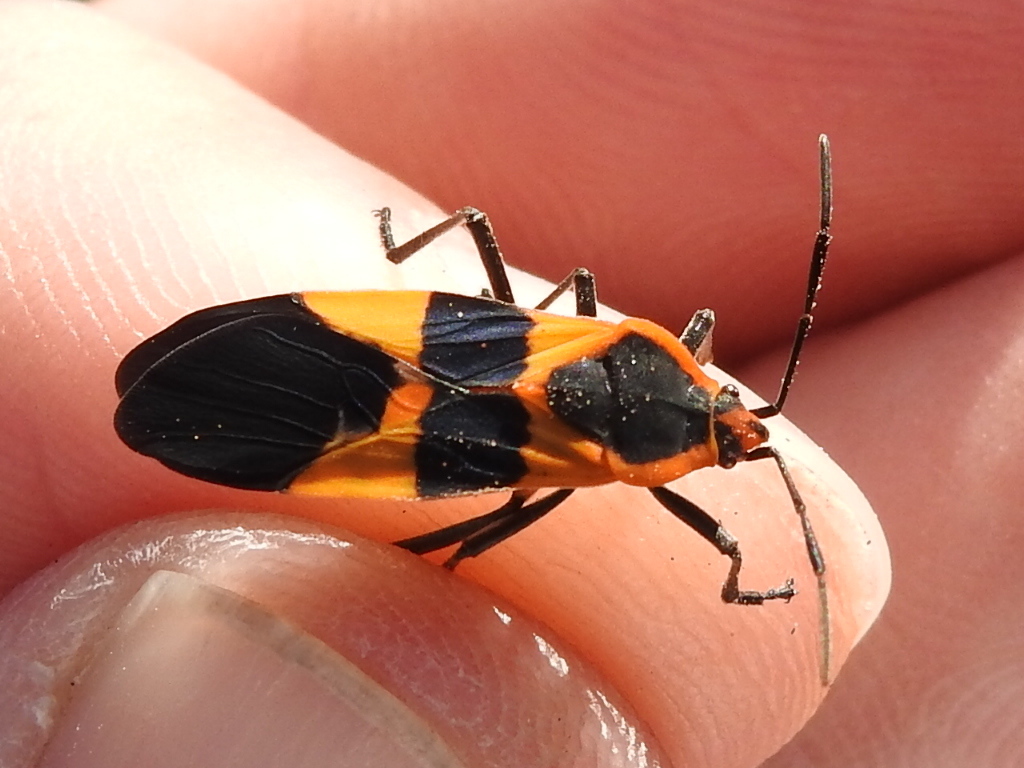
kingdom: Animalia
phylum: Arthropoda
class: Insecta
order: Hemiptera
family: Lygaeidae
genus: Oncopeltus
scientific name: Oncopeltus fasciatus
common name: Large milkweed bug
